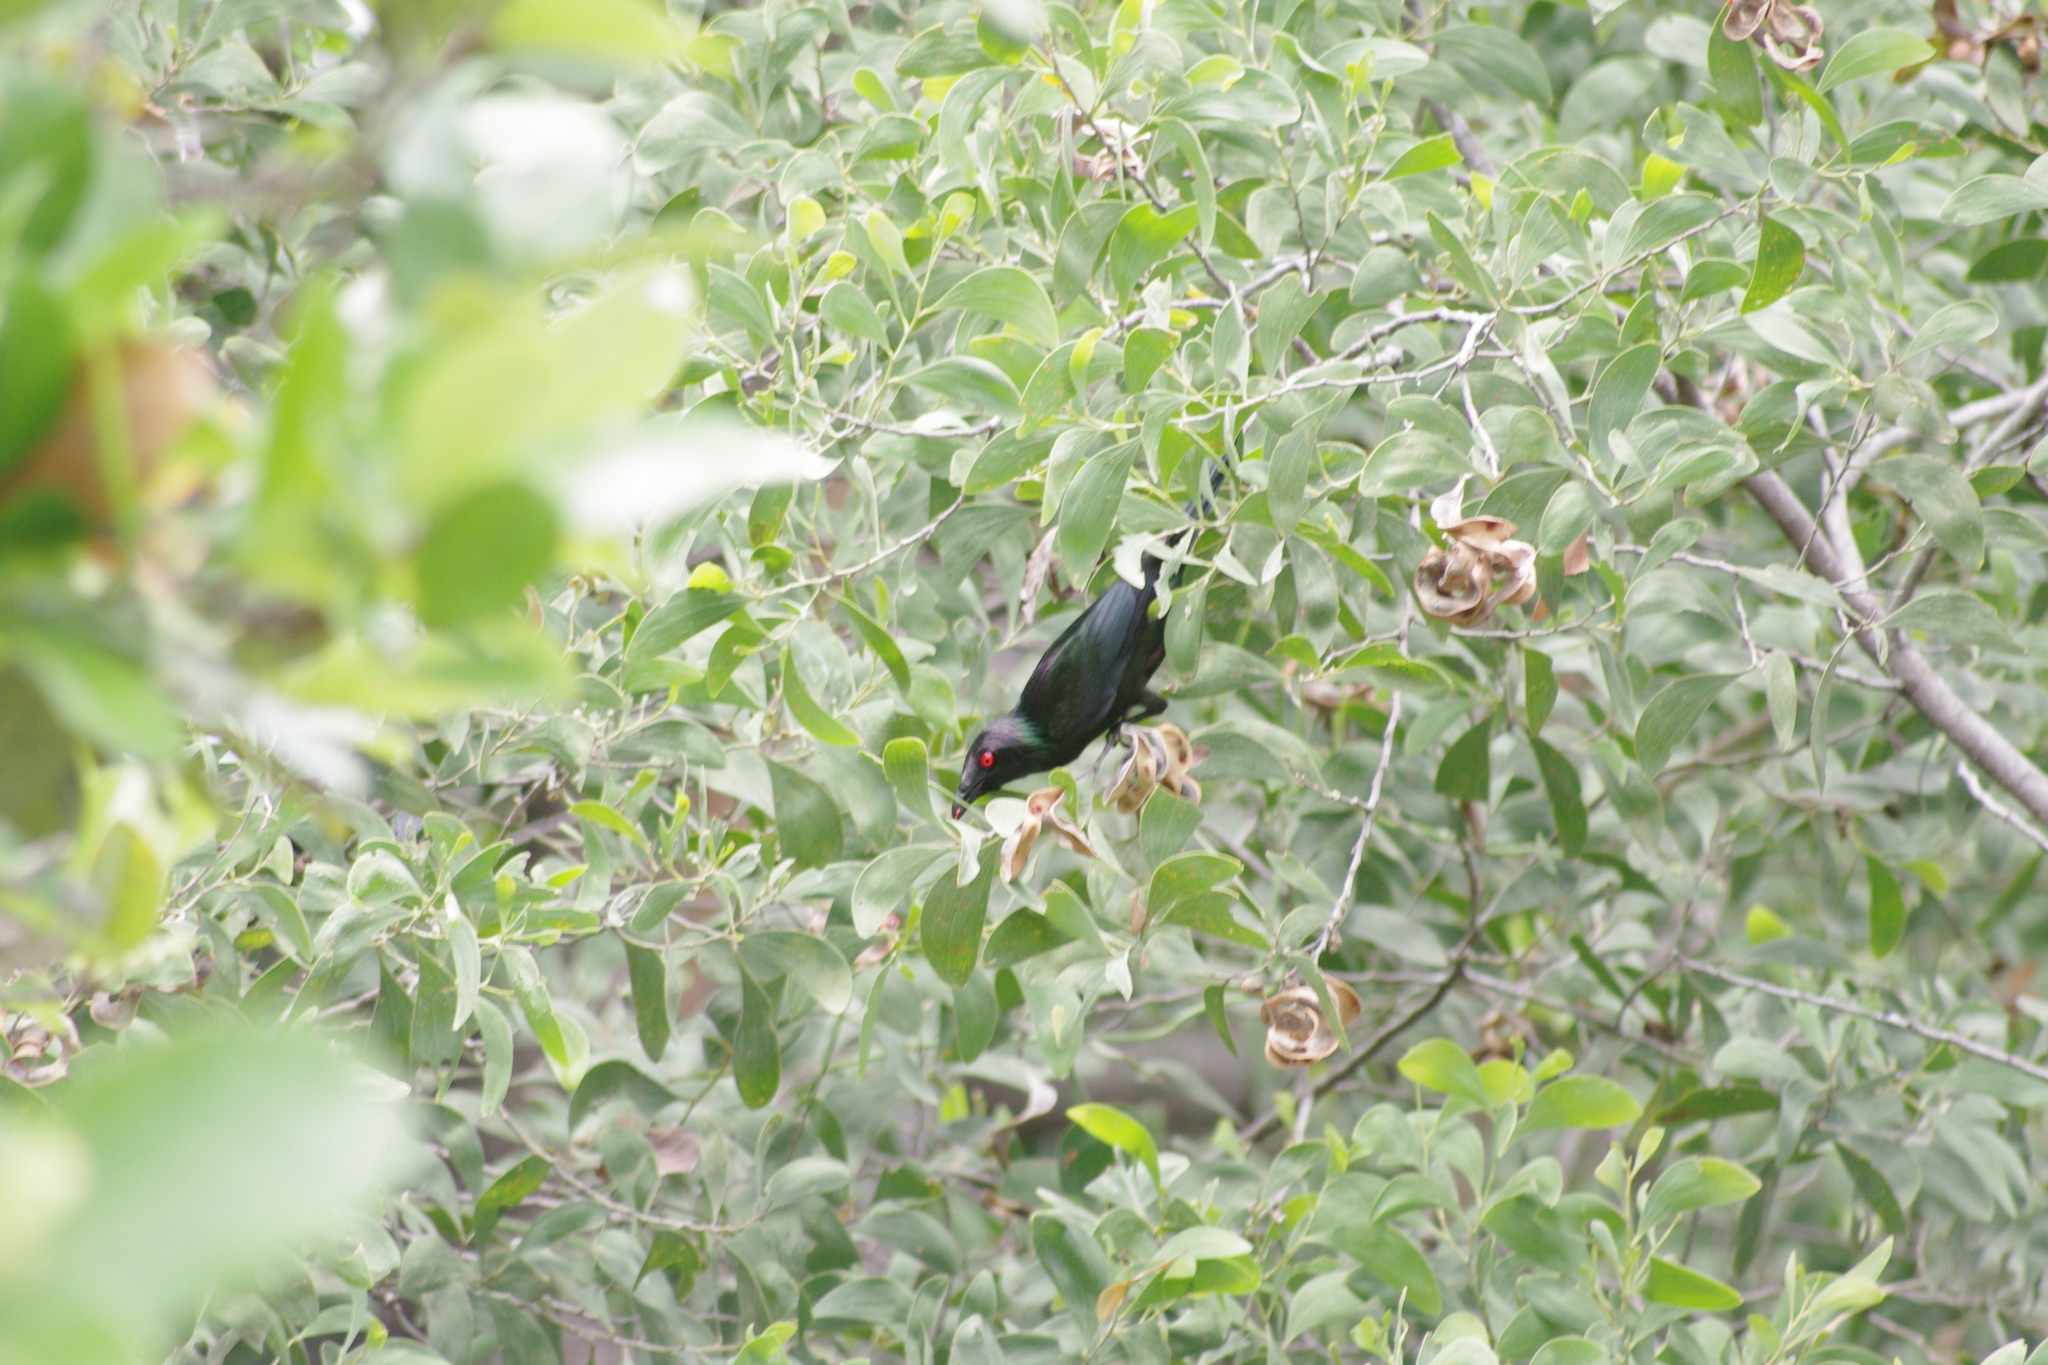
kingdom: Animalia
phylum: Chordata
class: Aves
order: Passeriformes
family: Sturnidae
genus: Aplonis
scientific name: Aplonis metallica
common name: Metallic starling
